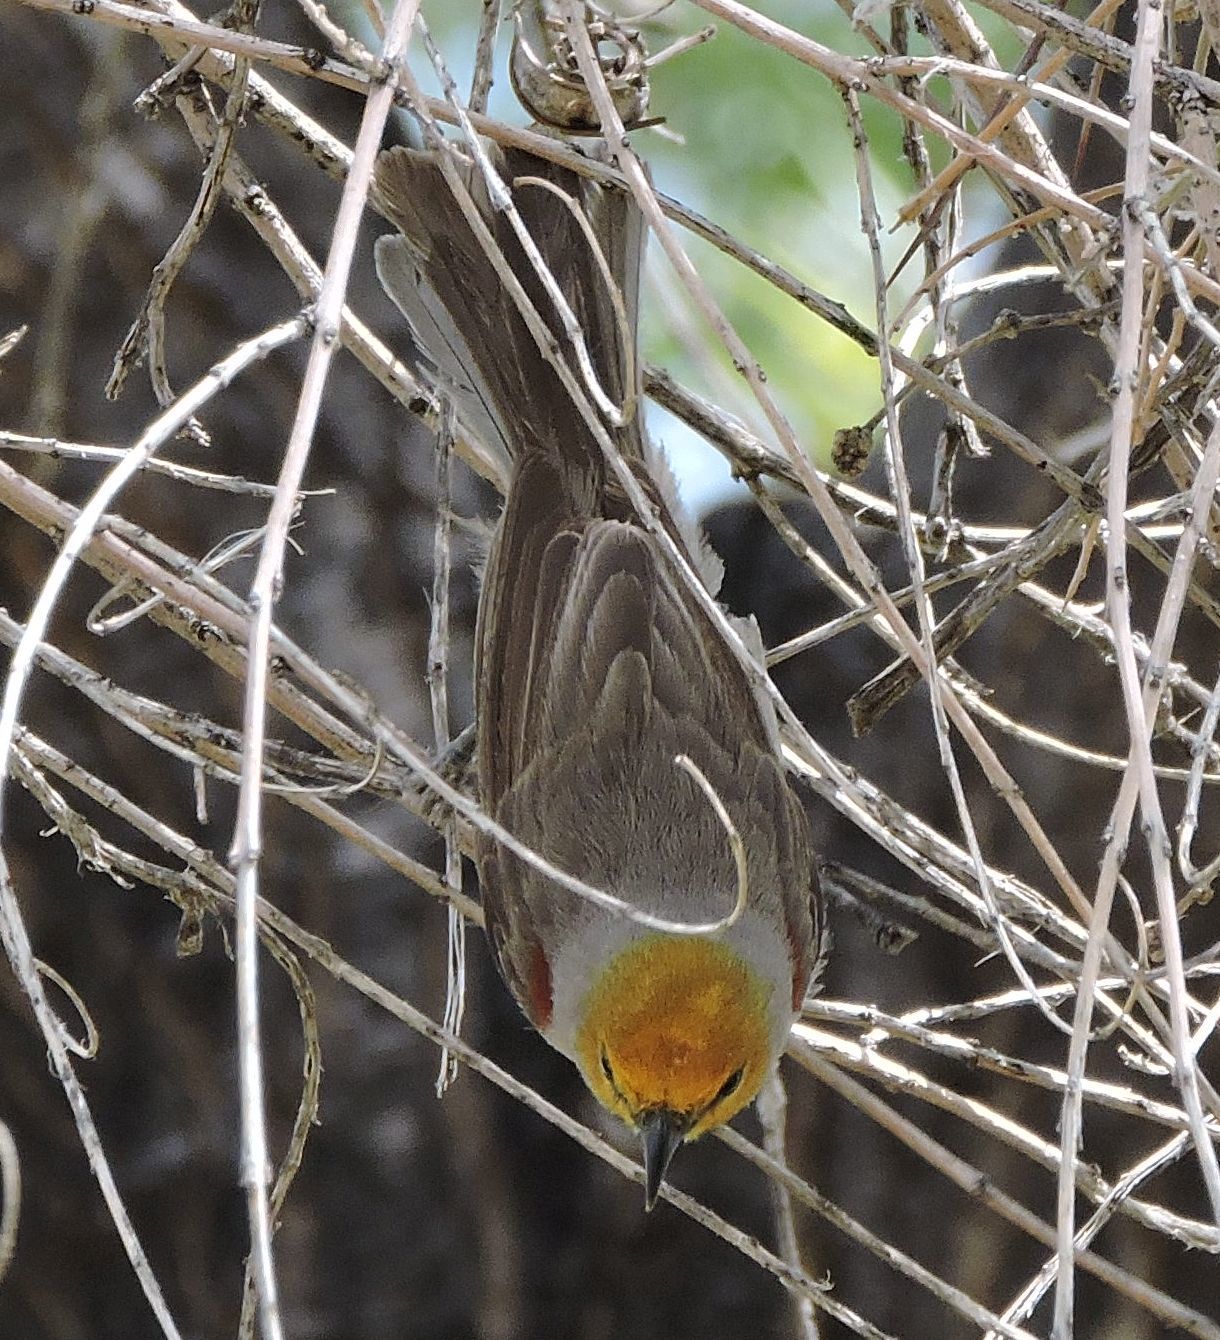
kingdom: Animalia
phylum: Chordata
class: Aves
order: Passeriformes
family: Remizidae
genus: Auriparus
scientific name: Auriparus flaviceps
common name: Verdin
